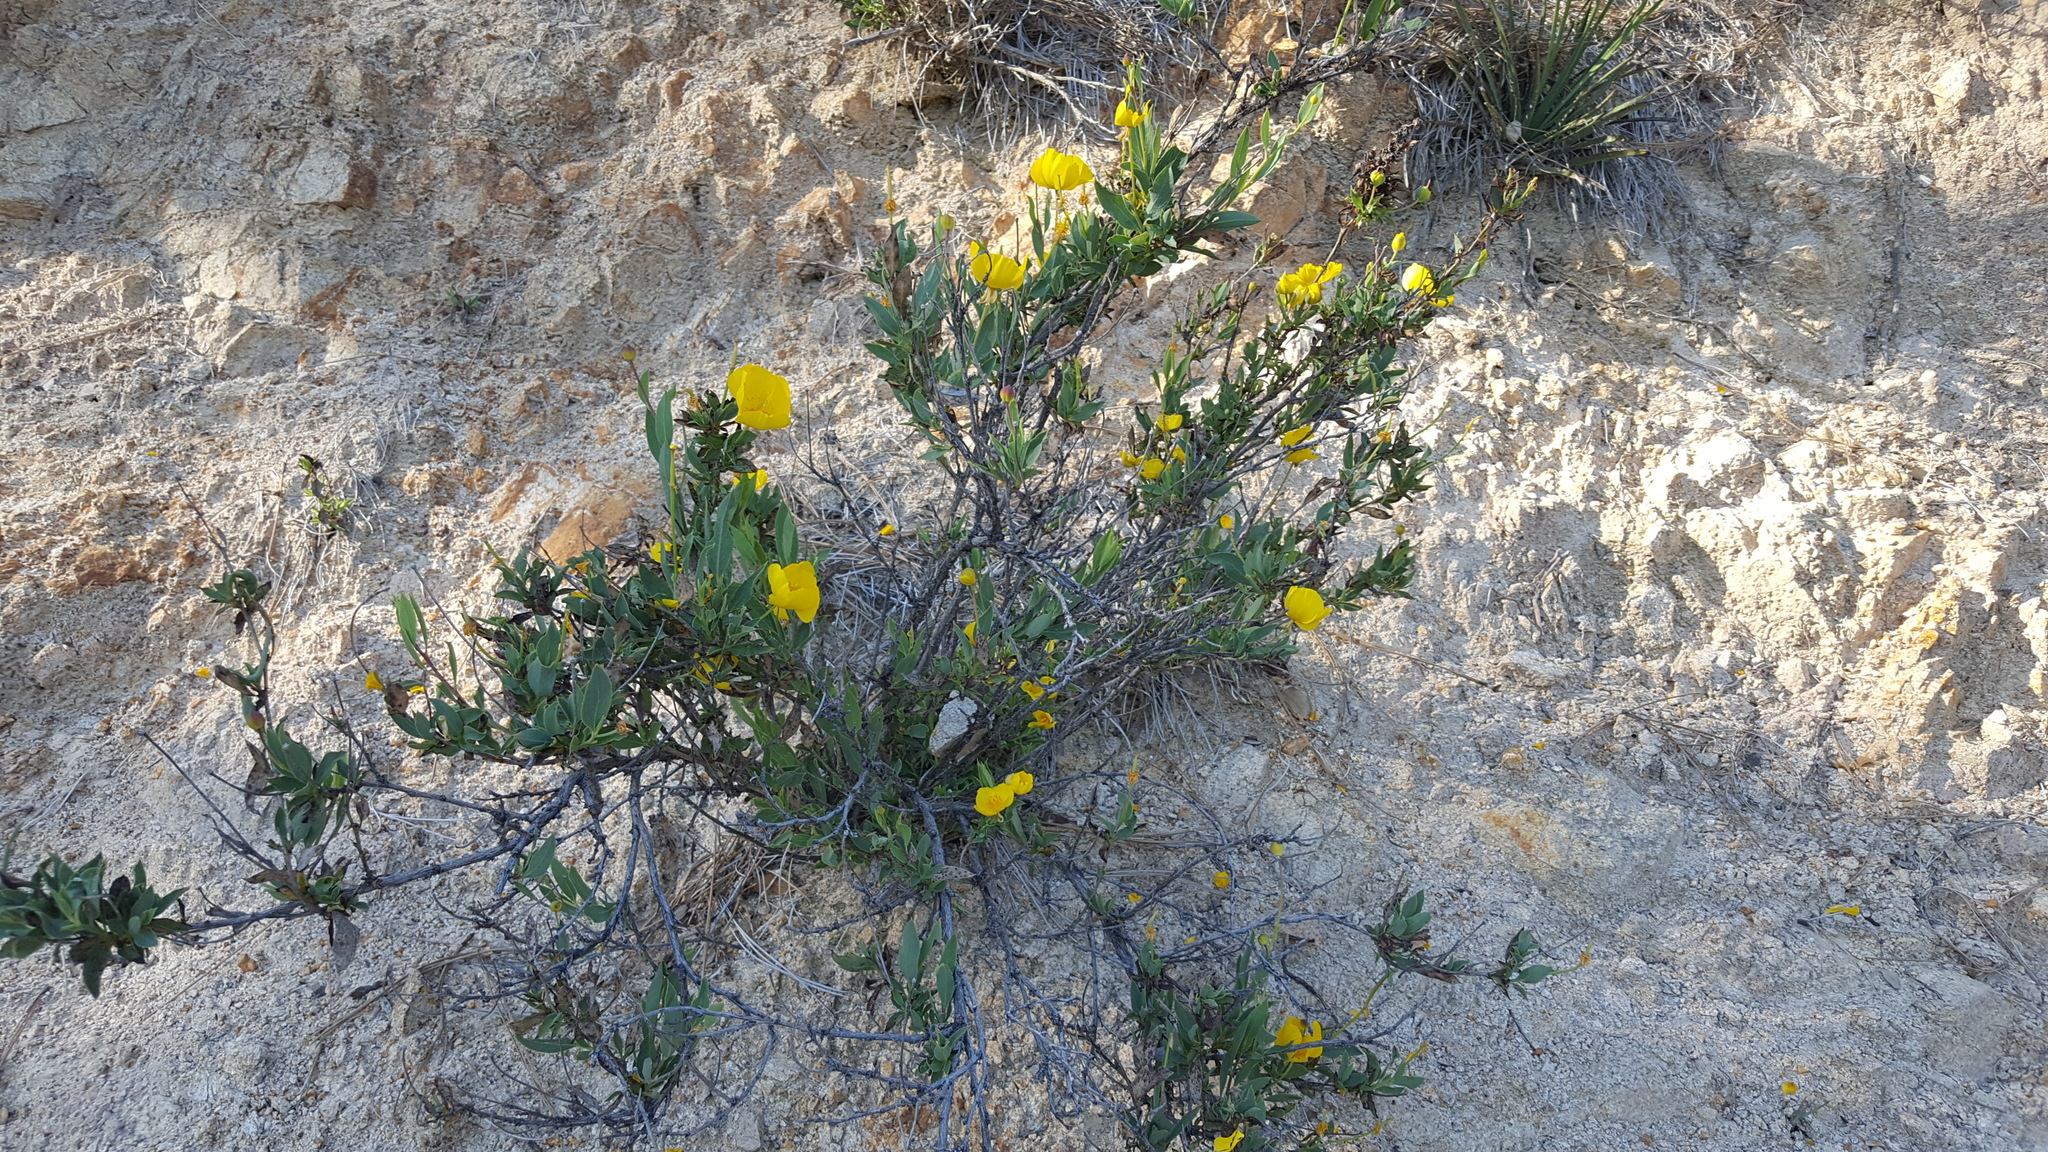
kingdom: Plantae
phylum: Tracheophyta
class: Magnoliopsida
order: Ranunculales
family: Papaveraceae
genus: Dendromecon
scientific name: Dendromecon rigida
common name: Tree poppy
